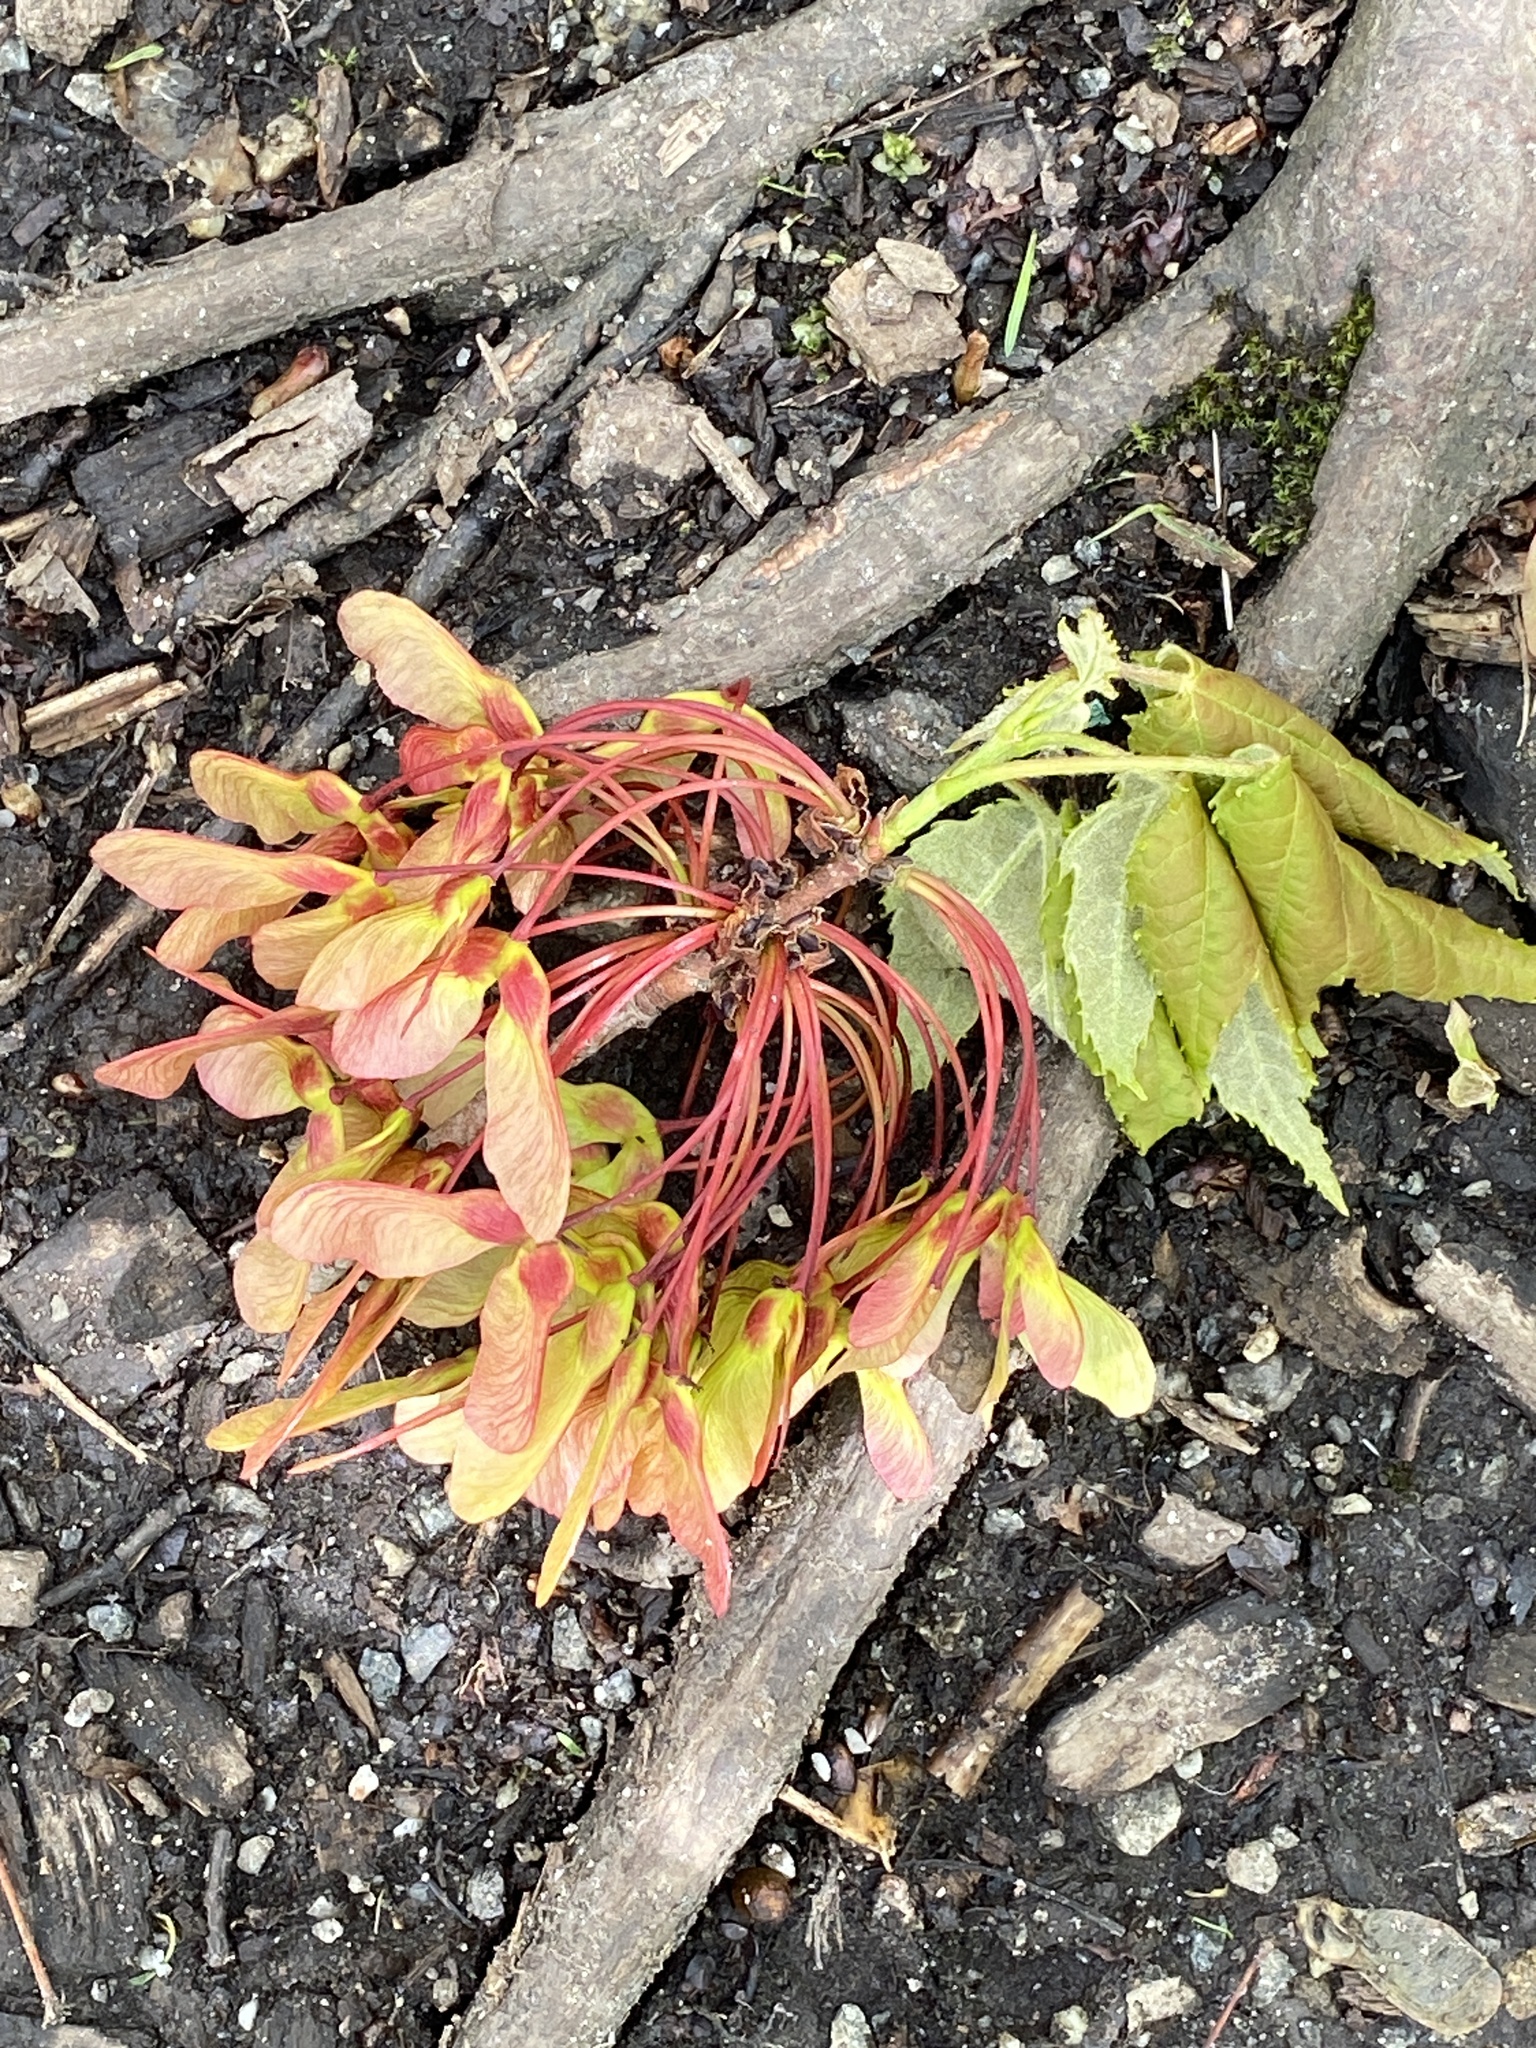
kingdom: Plantae
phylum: Tracheophyta
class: Magnoliopsida
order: Sapindales
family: Sapindaceae
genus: Acer
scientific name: Acer rubrum
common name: Red maple
